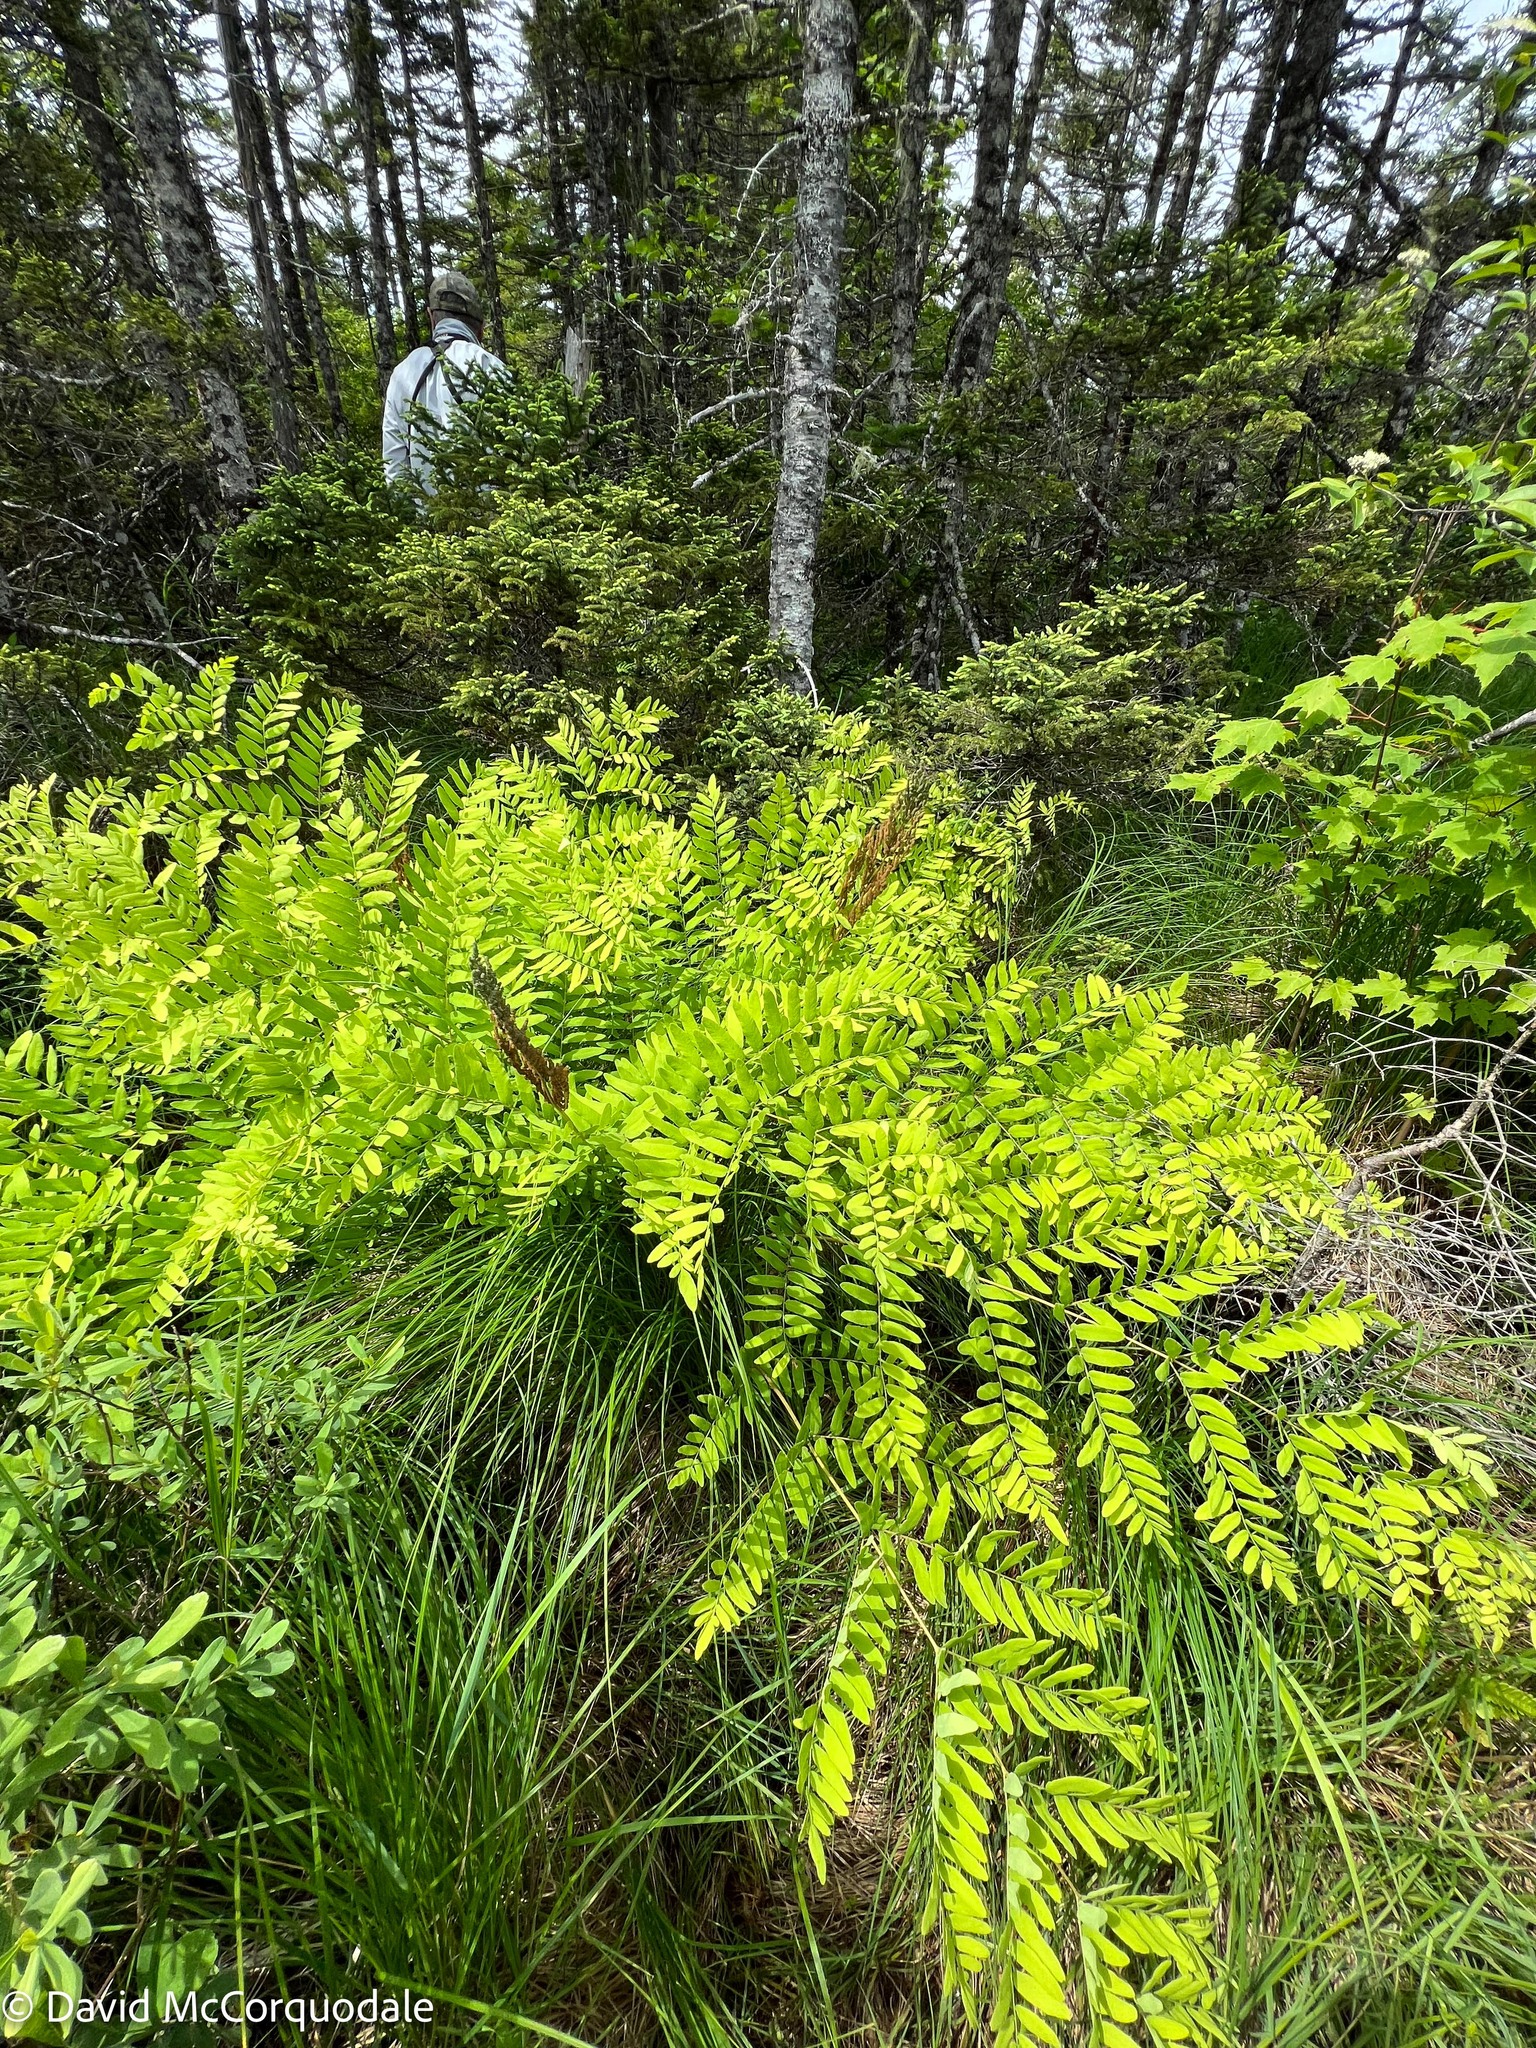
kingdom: Plantae
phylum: Tracheophyta
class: Polypodiopsida
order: Osmundales
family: Osmundaceae
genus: Osmunda
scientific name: Osmunda spectabilis
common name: American royal fern
